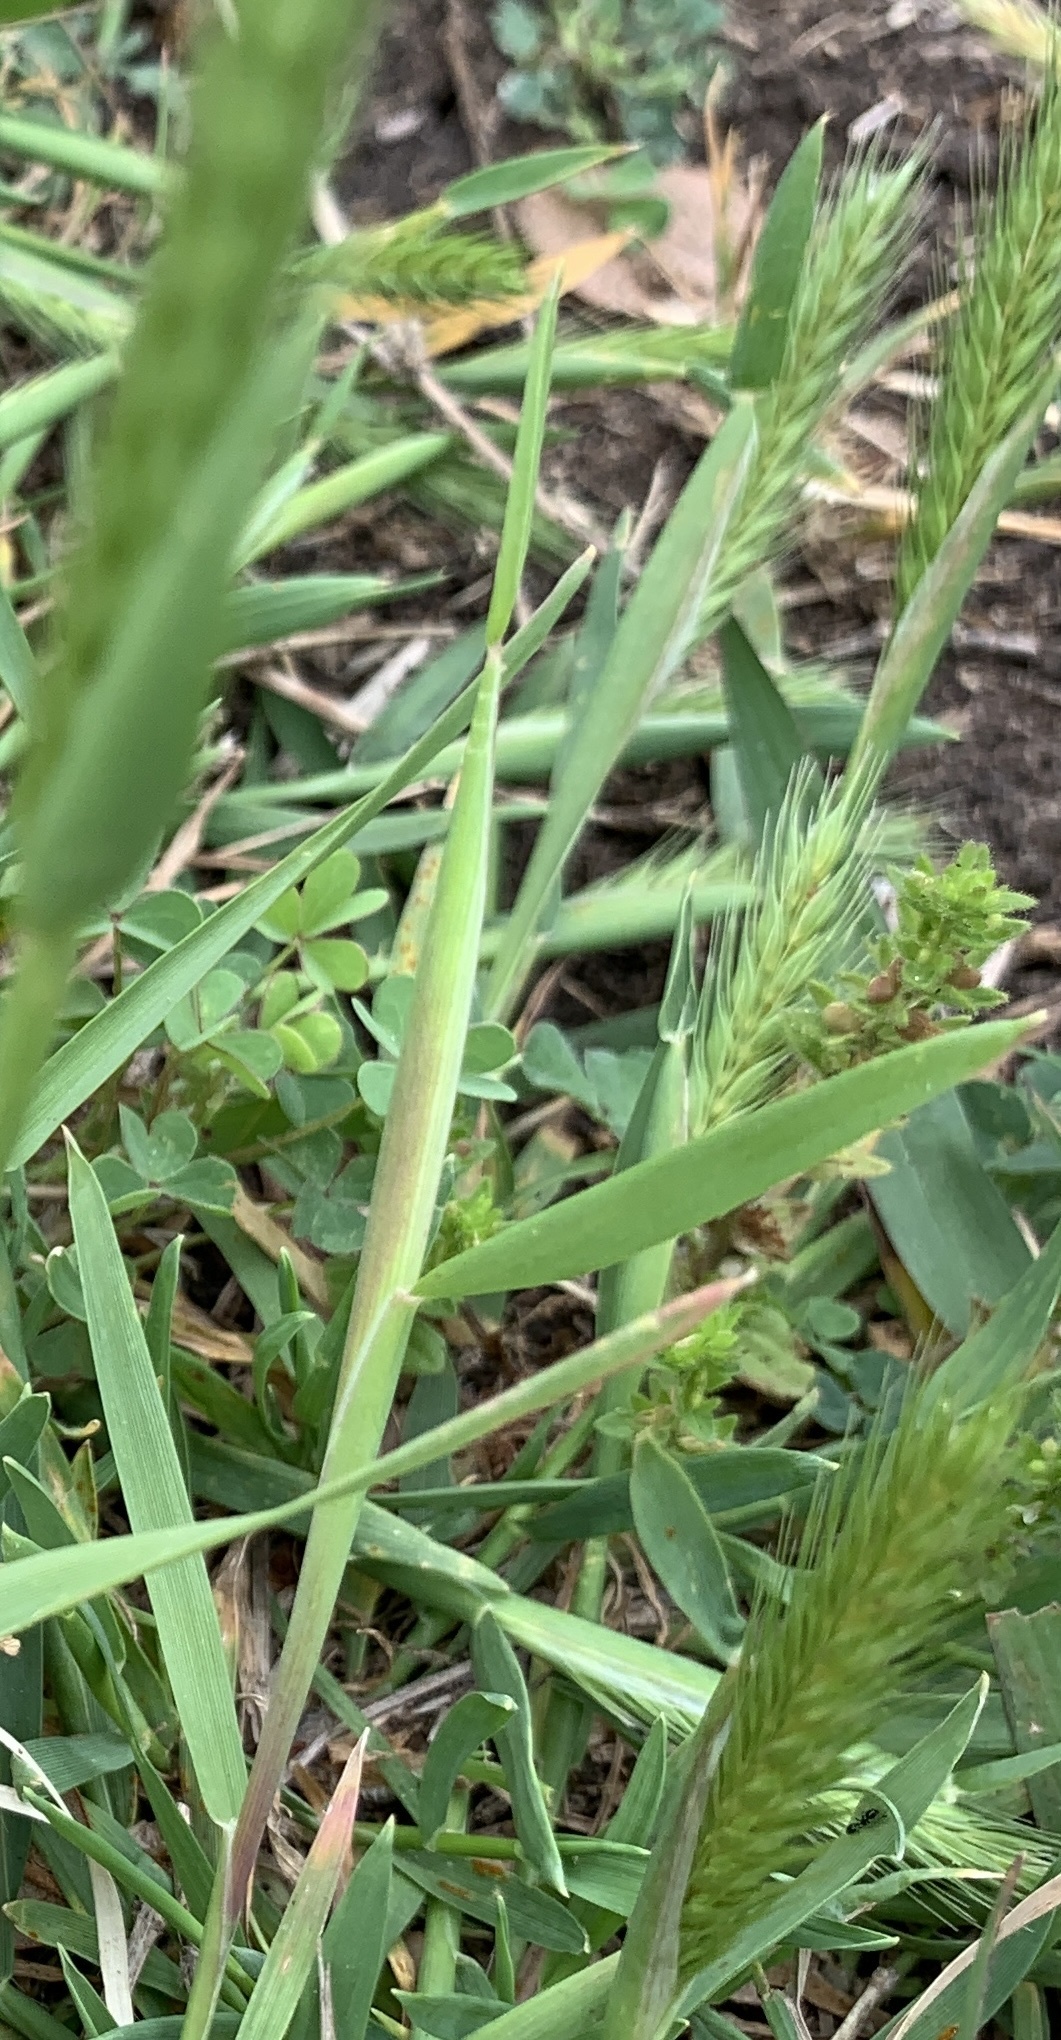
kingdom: Plantae
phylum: Tracheophyta
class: Liliopsida
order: Poales
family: Poaceae
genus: Hordeum
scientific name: Hordeum pusillum
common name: Little barley
